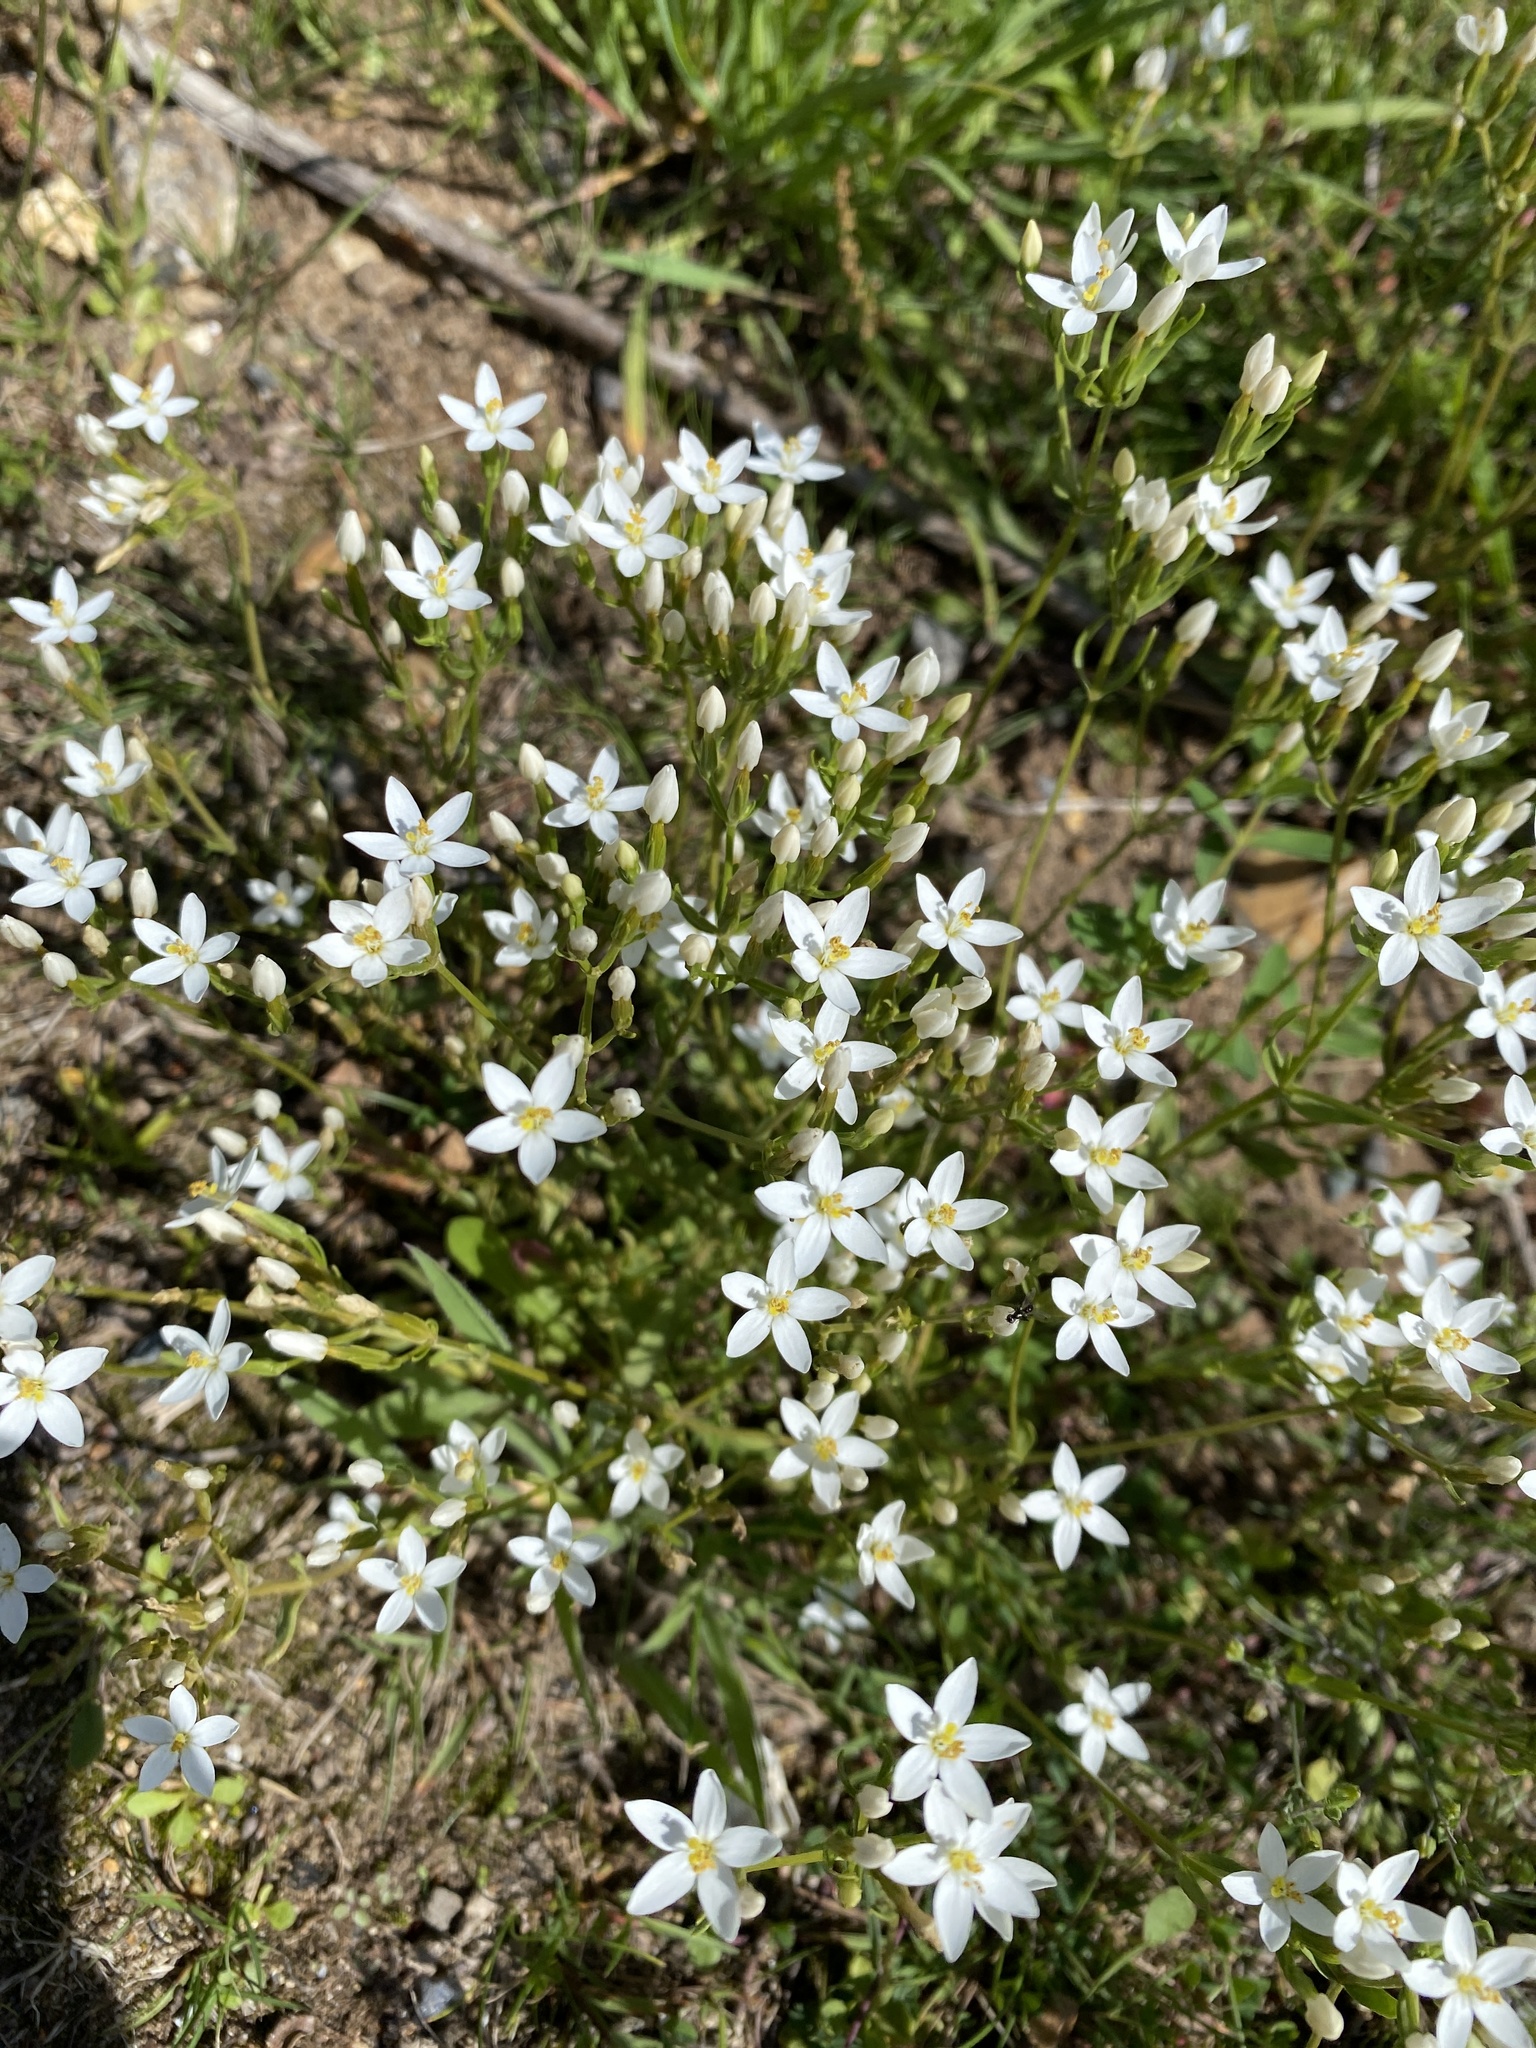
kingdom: Plantae
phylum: Tracheophyta
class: Magnoliopsida
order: Caryophyllales
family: Caryophyllaceae
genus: Spergula
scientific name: Spergula arvensis
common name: Corn spurrey
